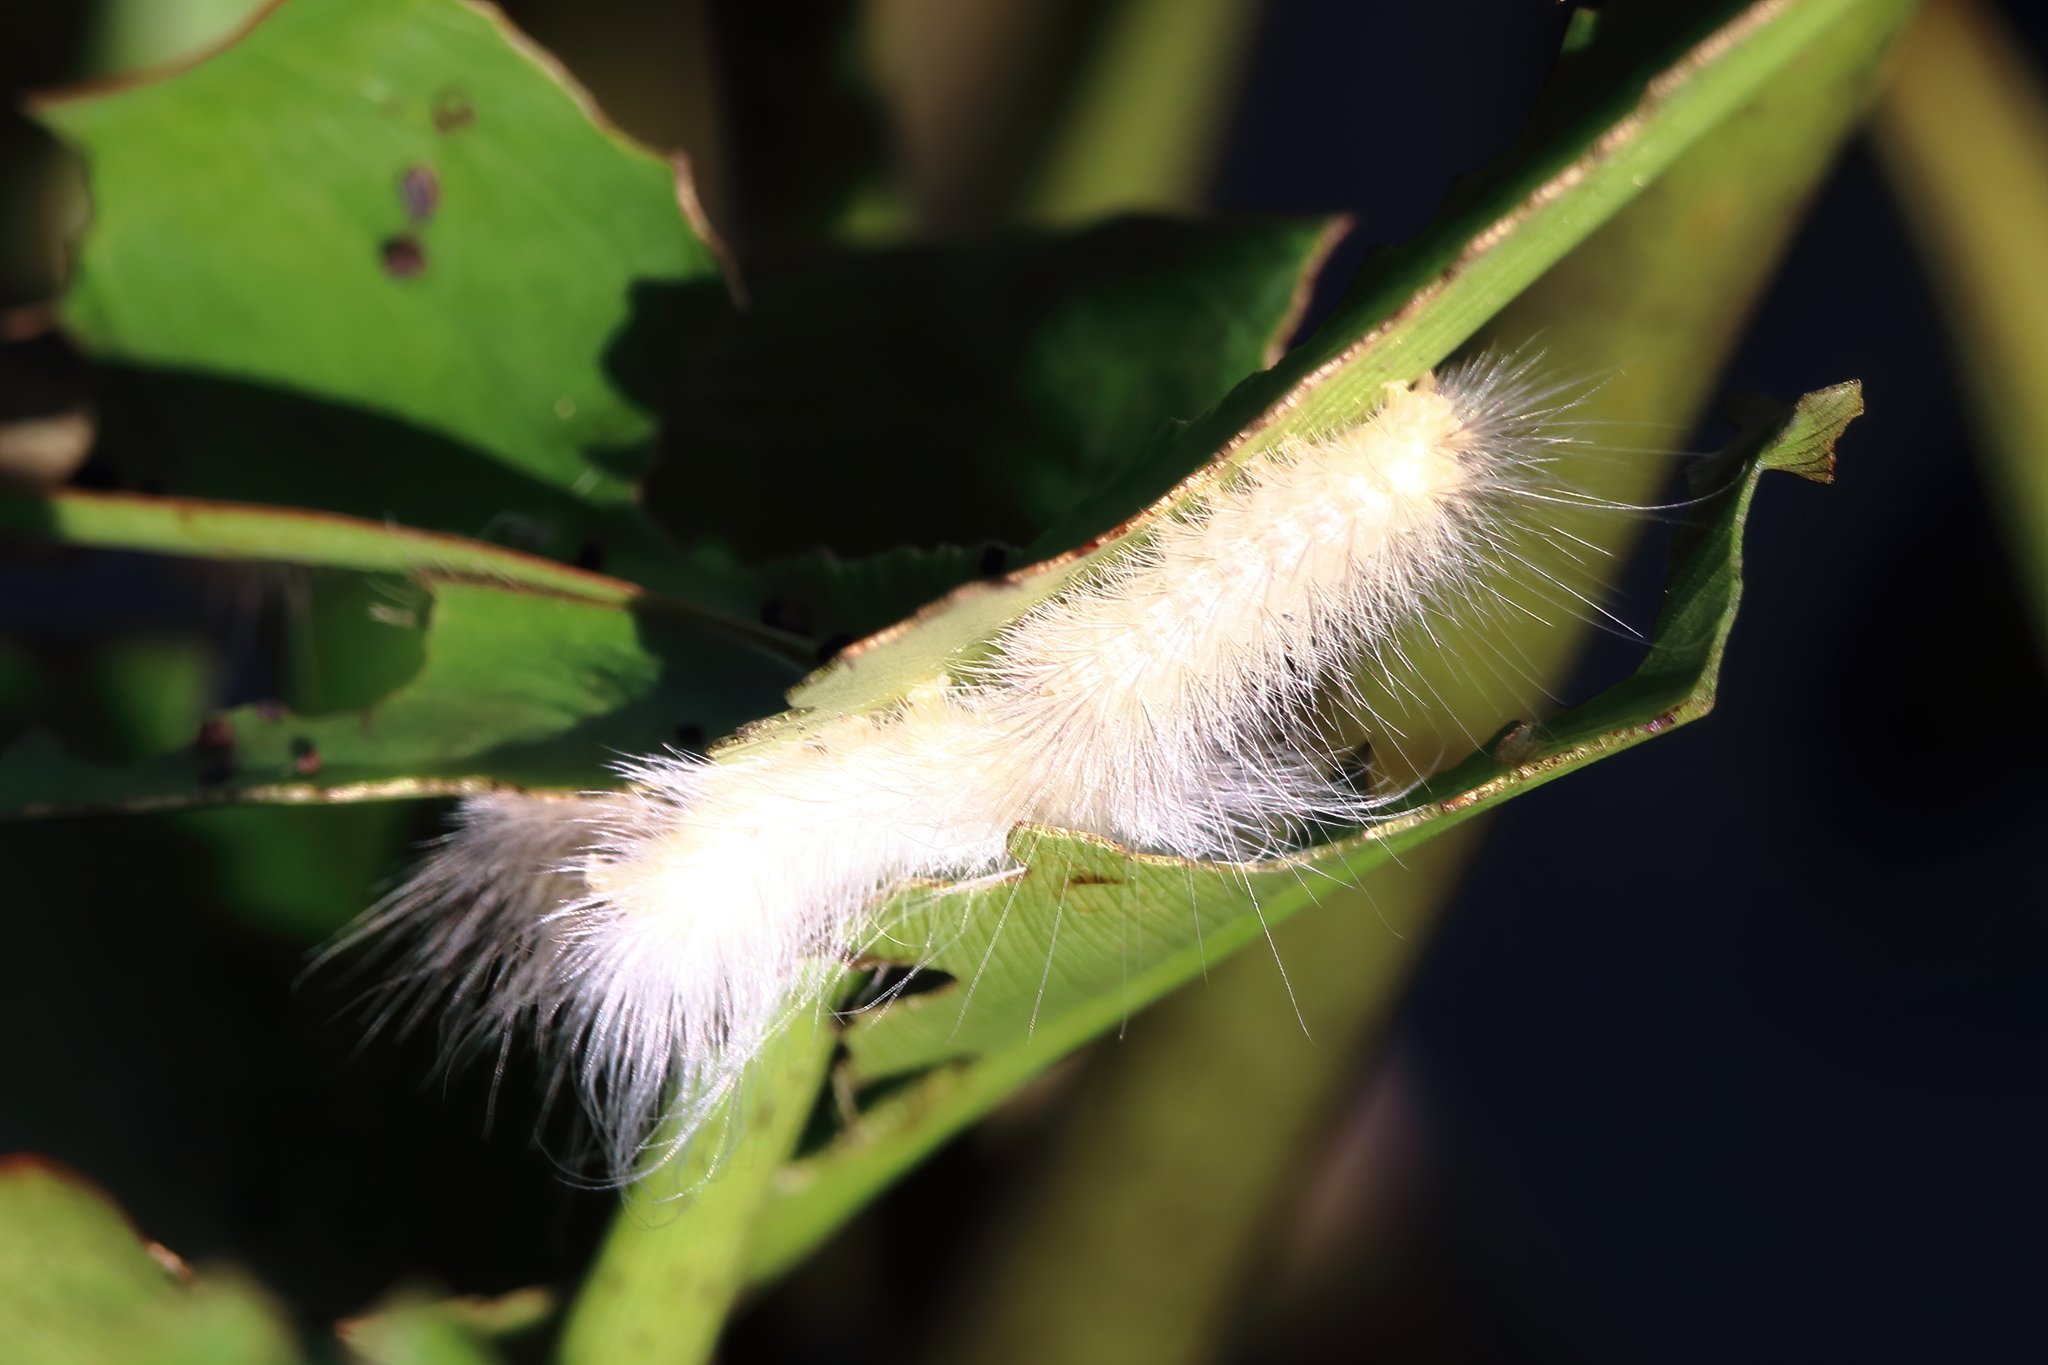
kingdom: Animalia
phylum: Arthropoda
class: Insecta
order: Lepidoptera
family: Erebidae
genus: Spilosoma
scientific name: Spilosoma virginica
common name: Virginia tiger moth
